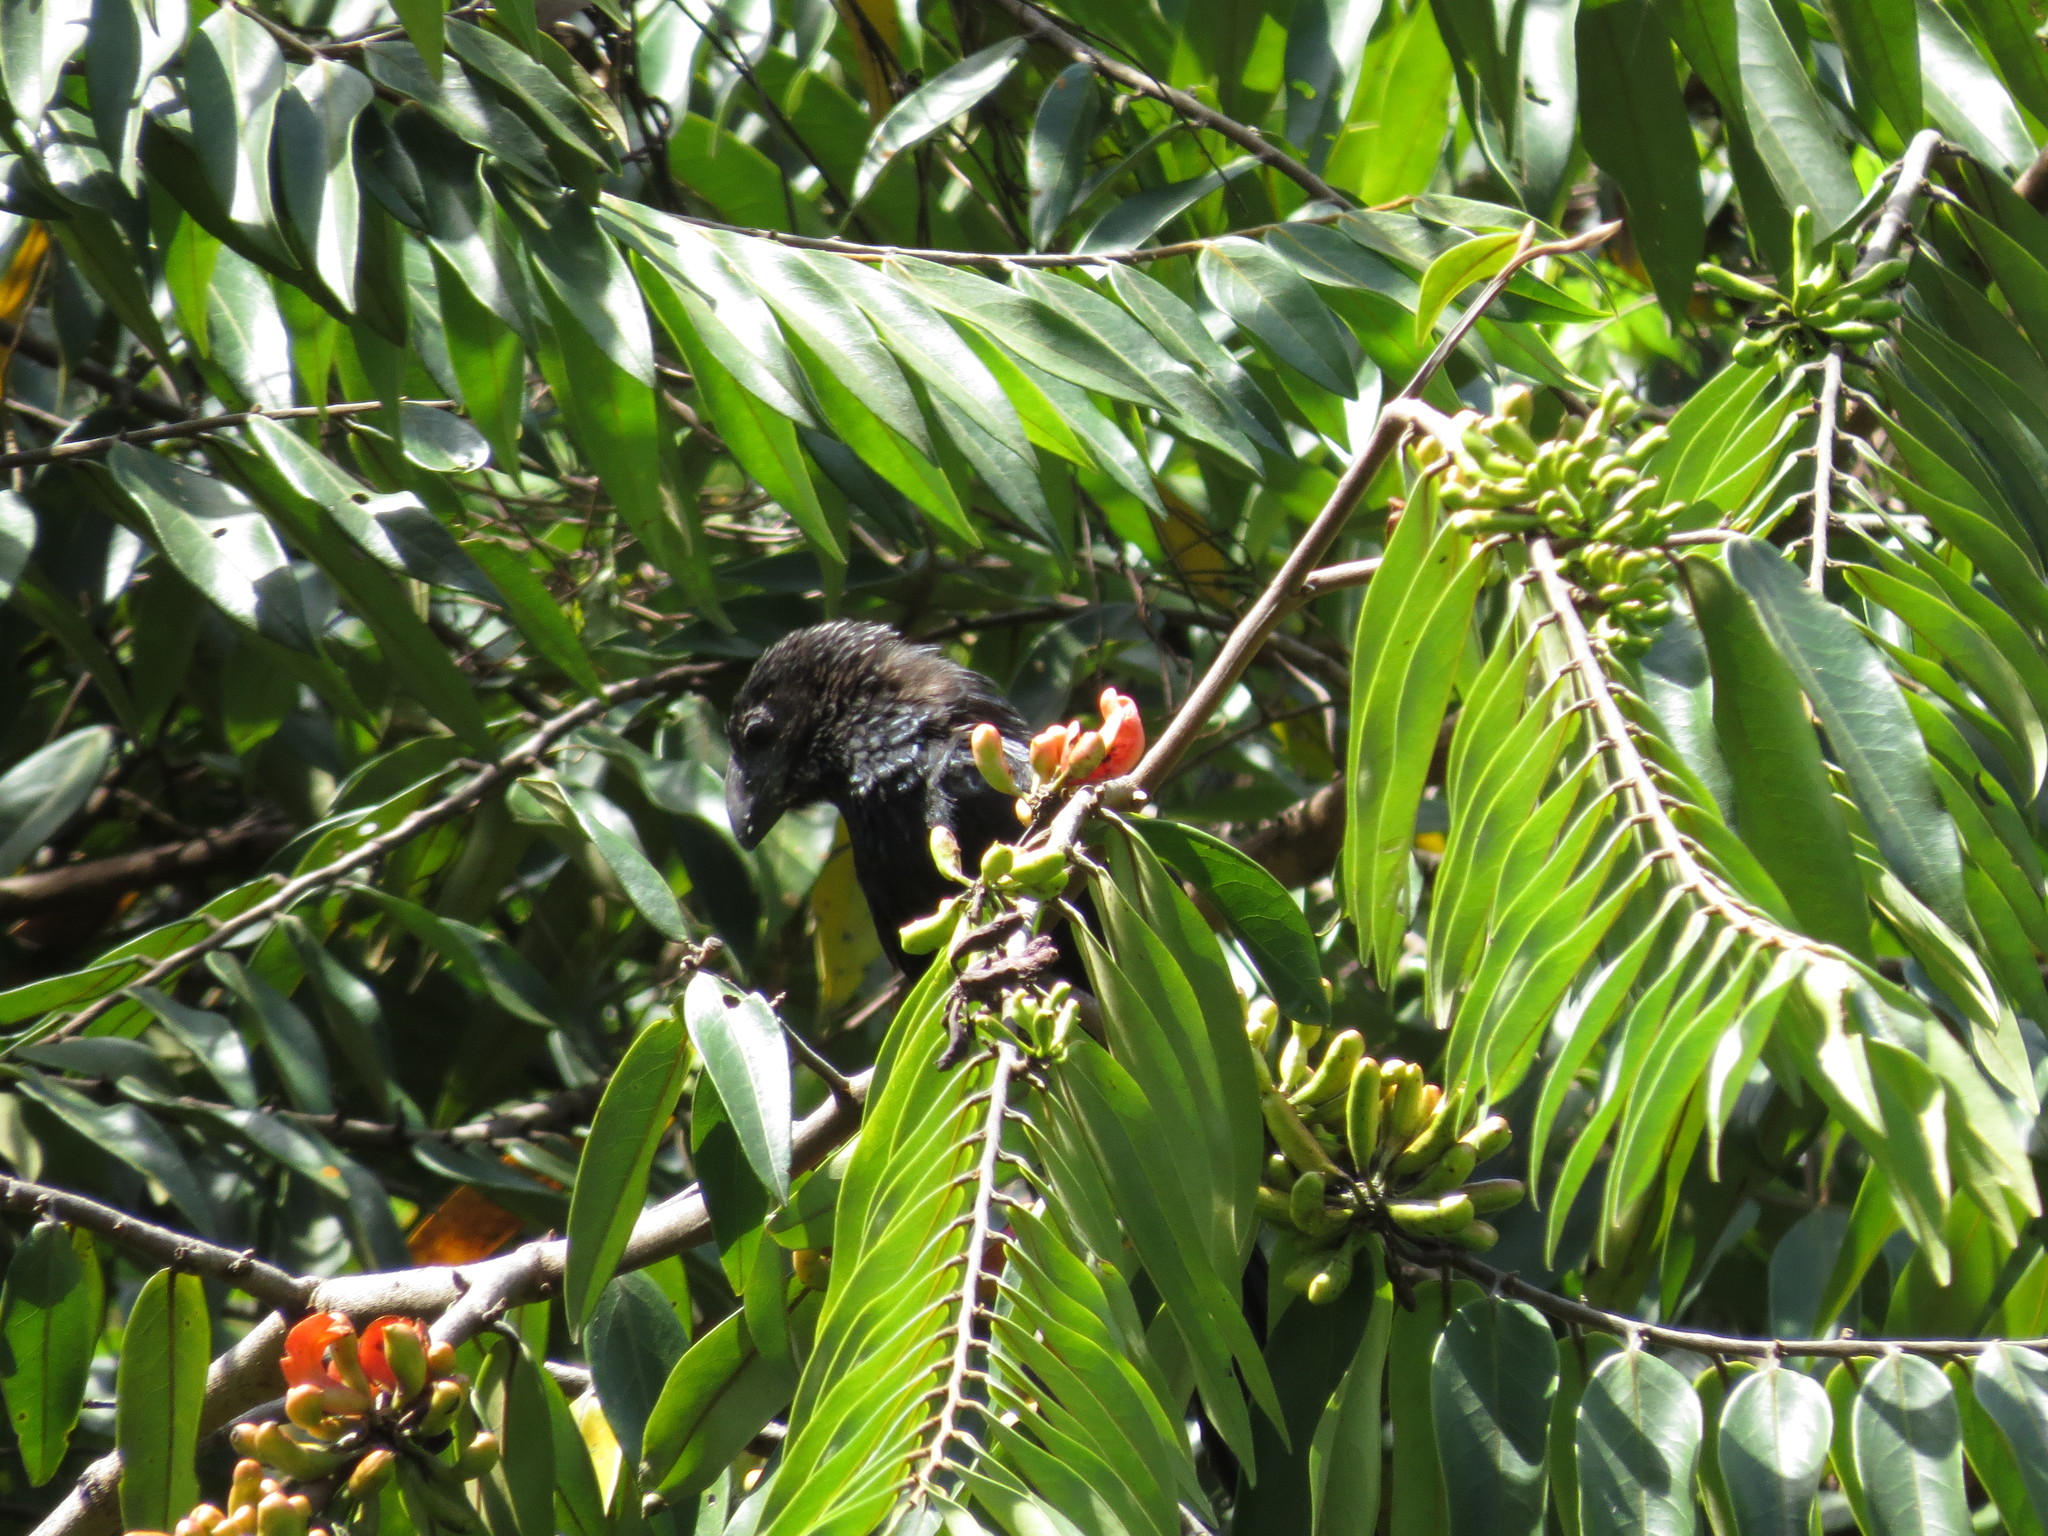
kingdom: Plantae
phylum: Tracheophyta
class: Magnoliopsida
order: Magnoliales
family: Annonaceae
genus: Xylopia
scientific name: Xylopia aromatica
